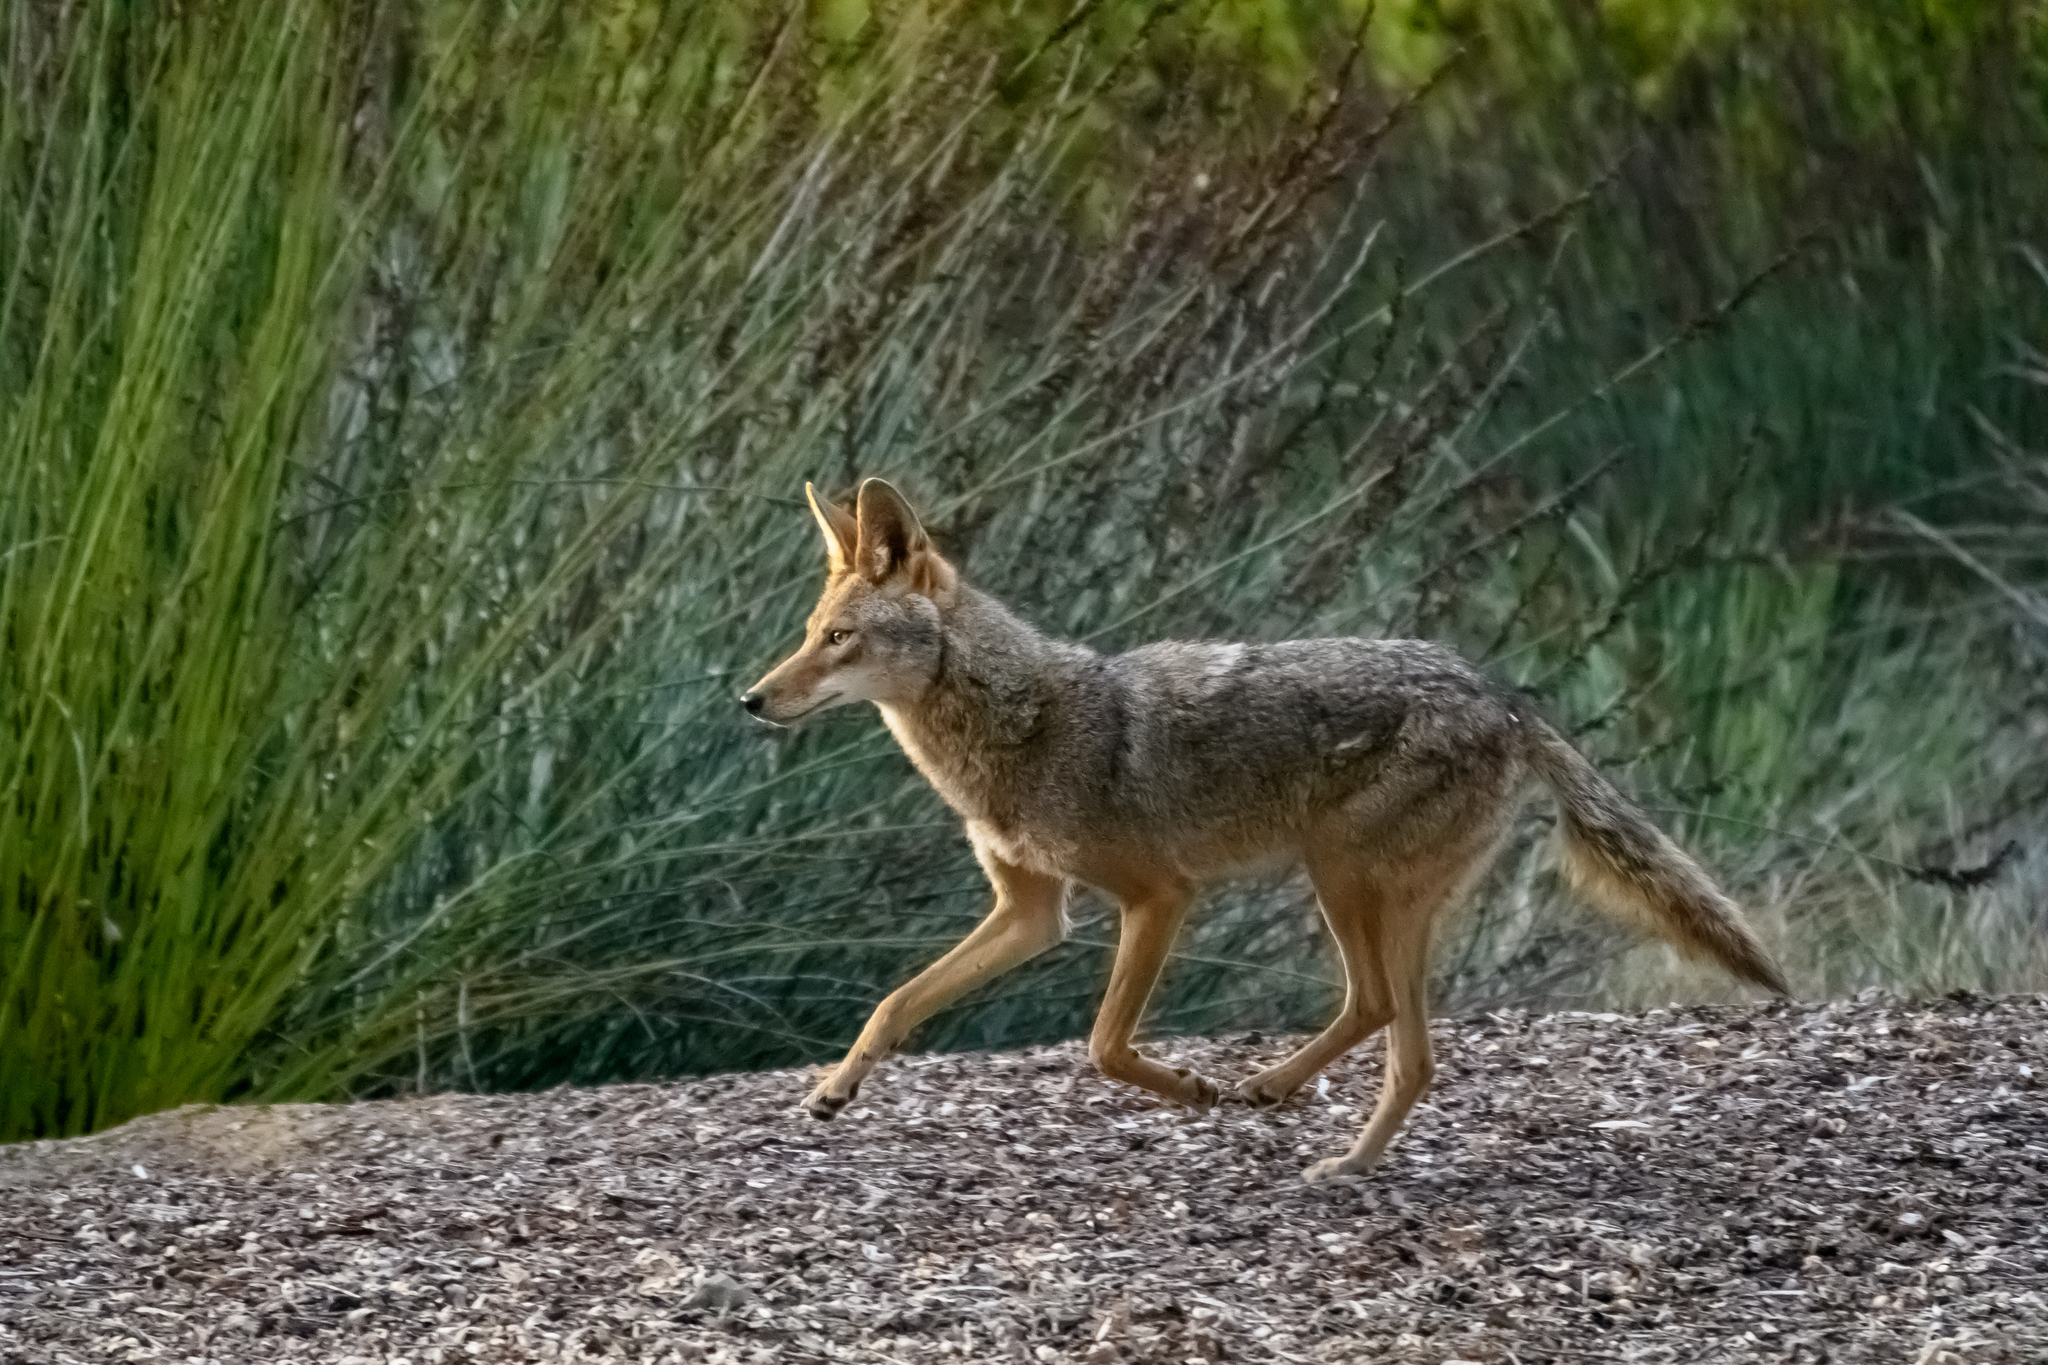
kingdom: Animalia
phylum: Chordata
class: Mammalia
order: Carnivora
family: Canidae
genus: Canis
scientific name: Canis latrans
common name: Coyote
